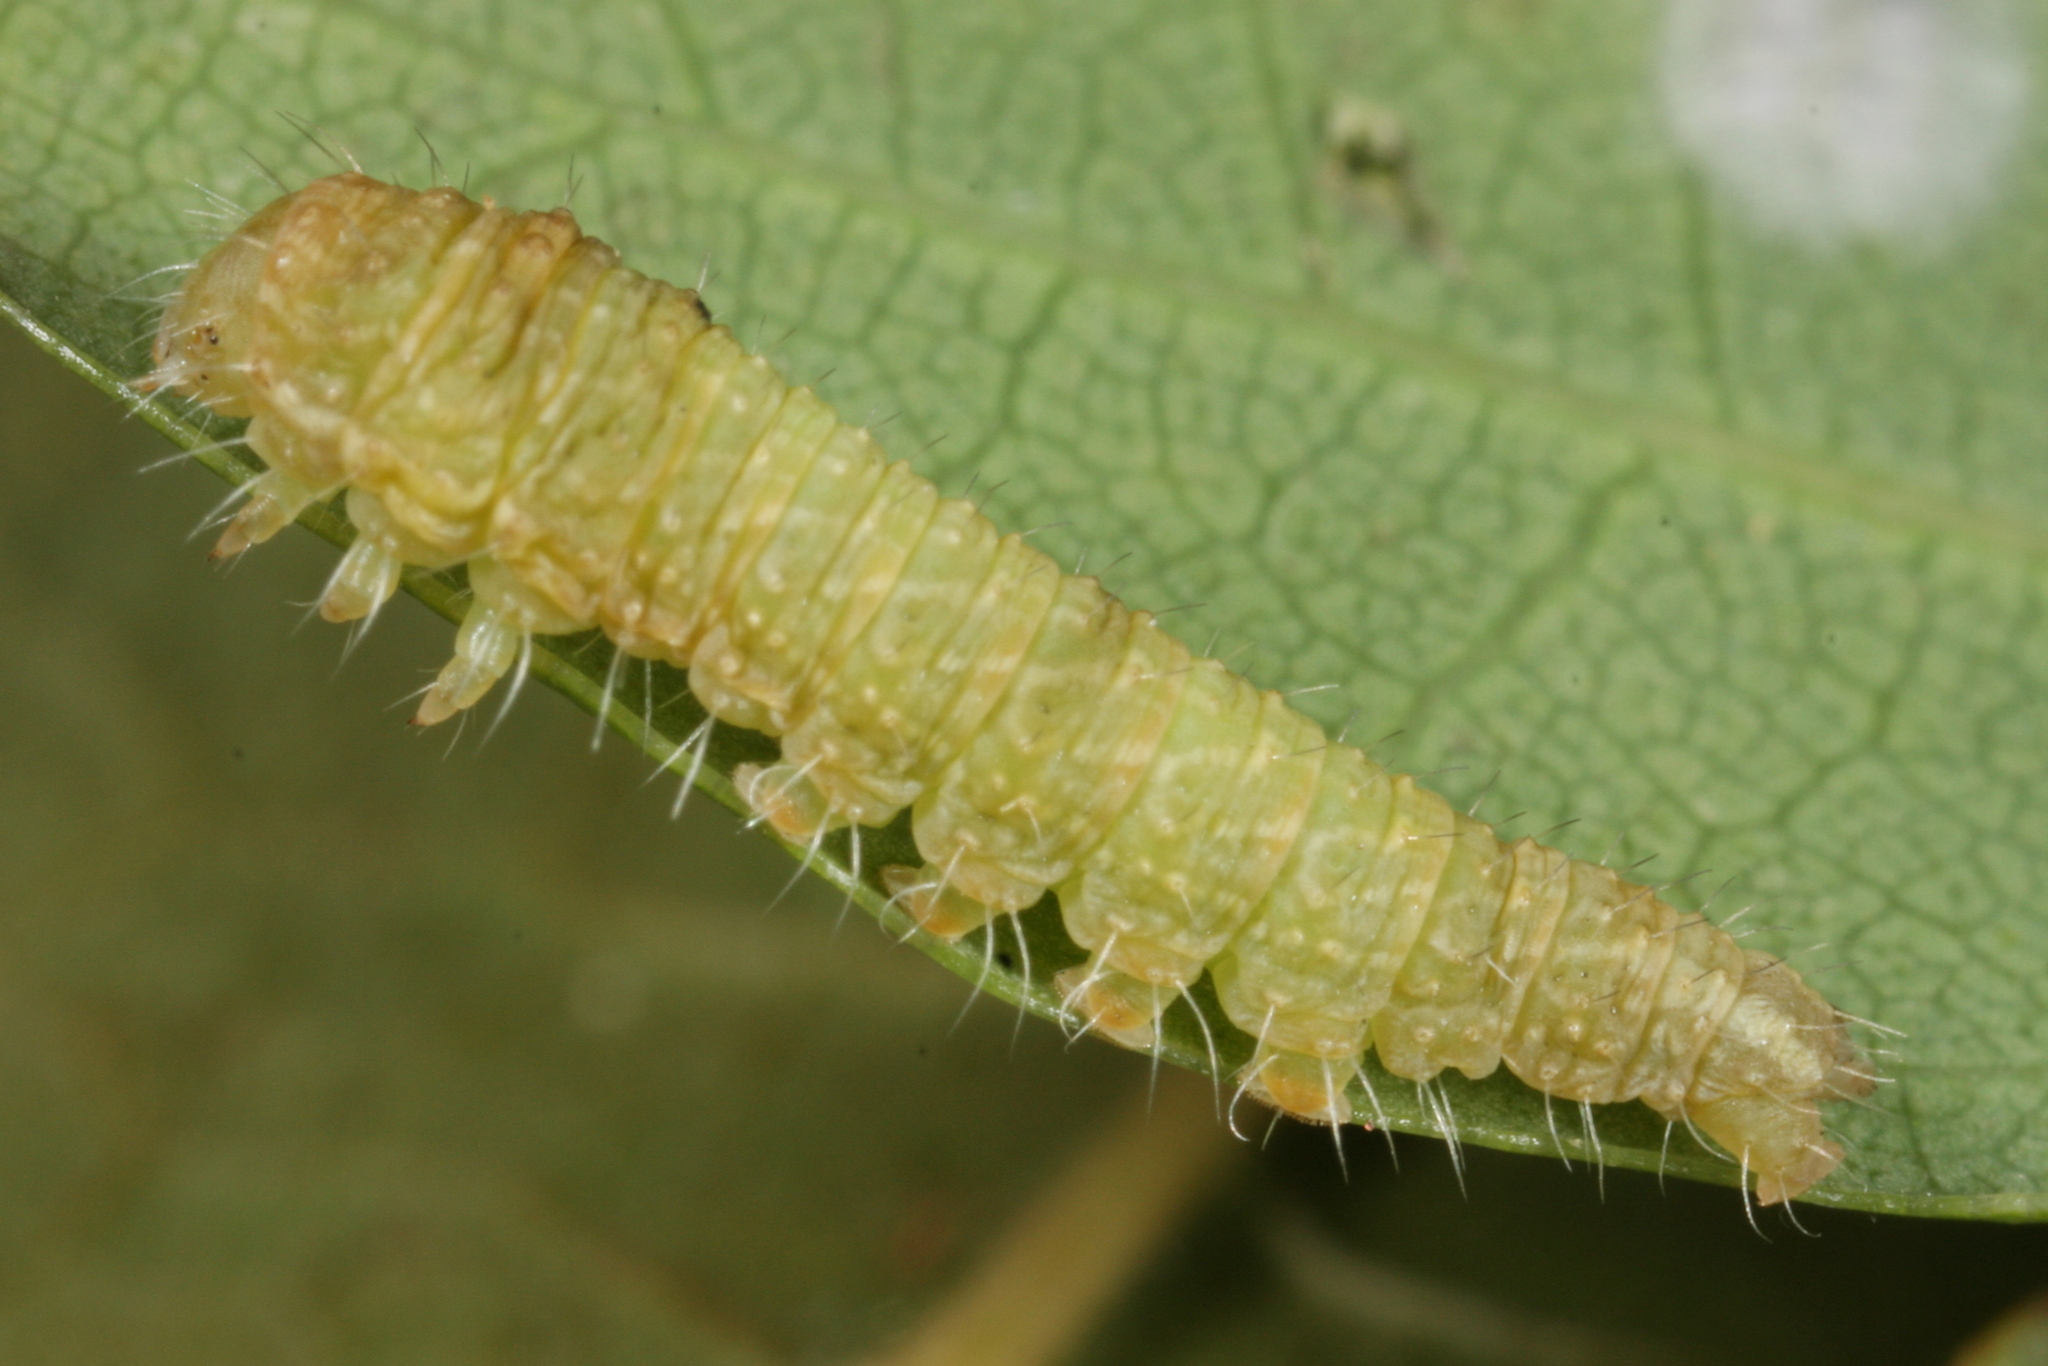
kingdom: Animalia
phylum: Arthropoda
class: Insecta
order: Lepidoptera
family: Nolidae
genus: Bena
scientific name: Bena bicolorana
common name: Scarce silver-lines
